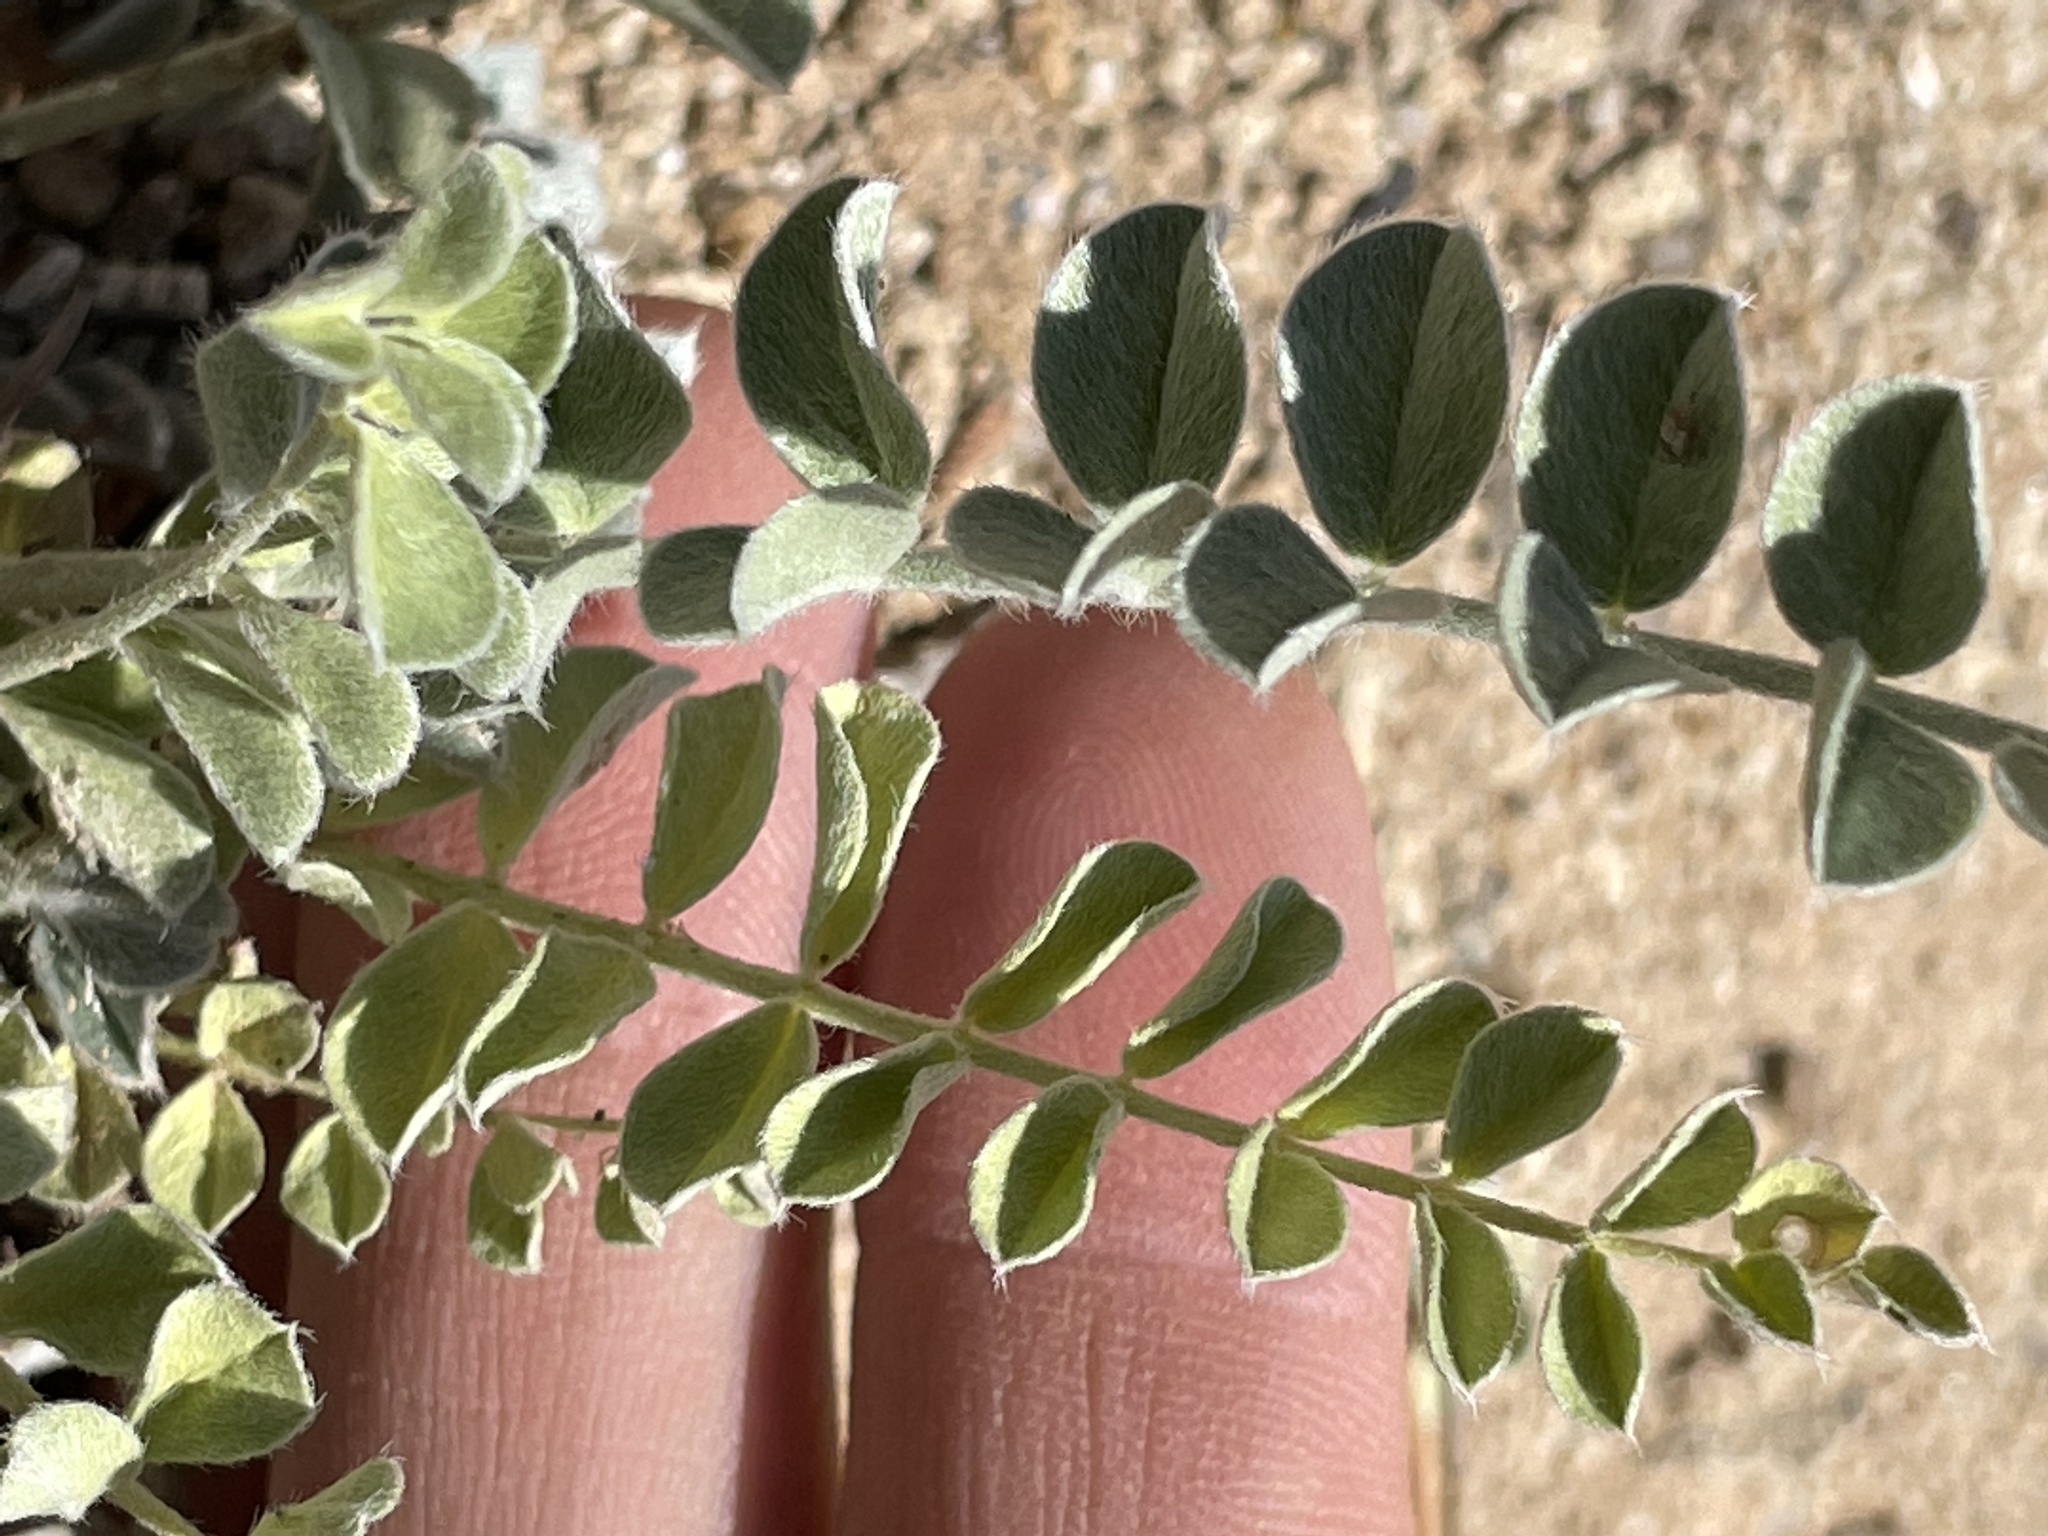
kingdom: Plantae
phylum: Tracheophyta
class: Magnoliopsida
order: Fabales
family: Fabaceae
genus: Astragalus
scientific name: Astragalus mollissimus
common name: Woolly locoweed
